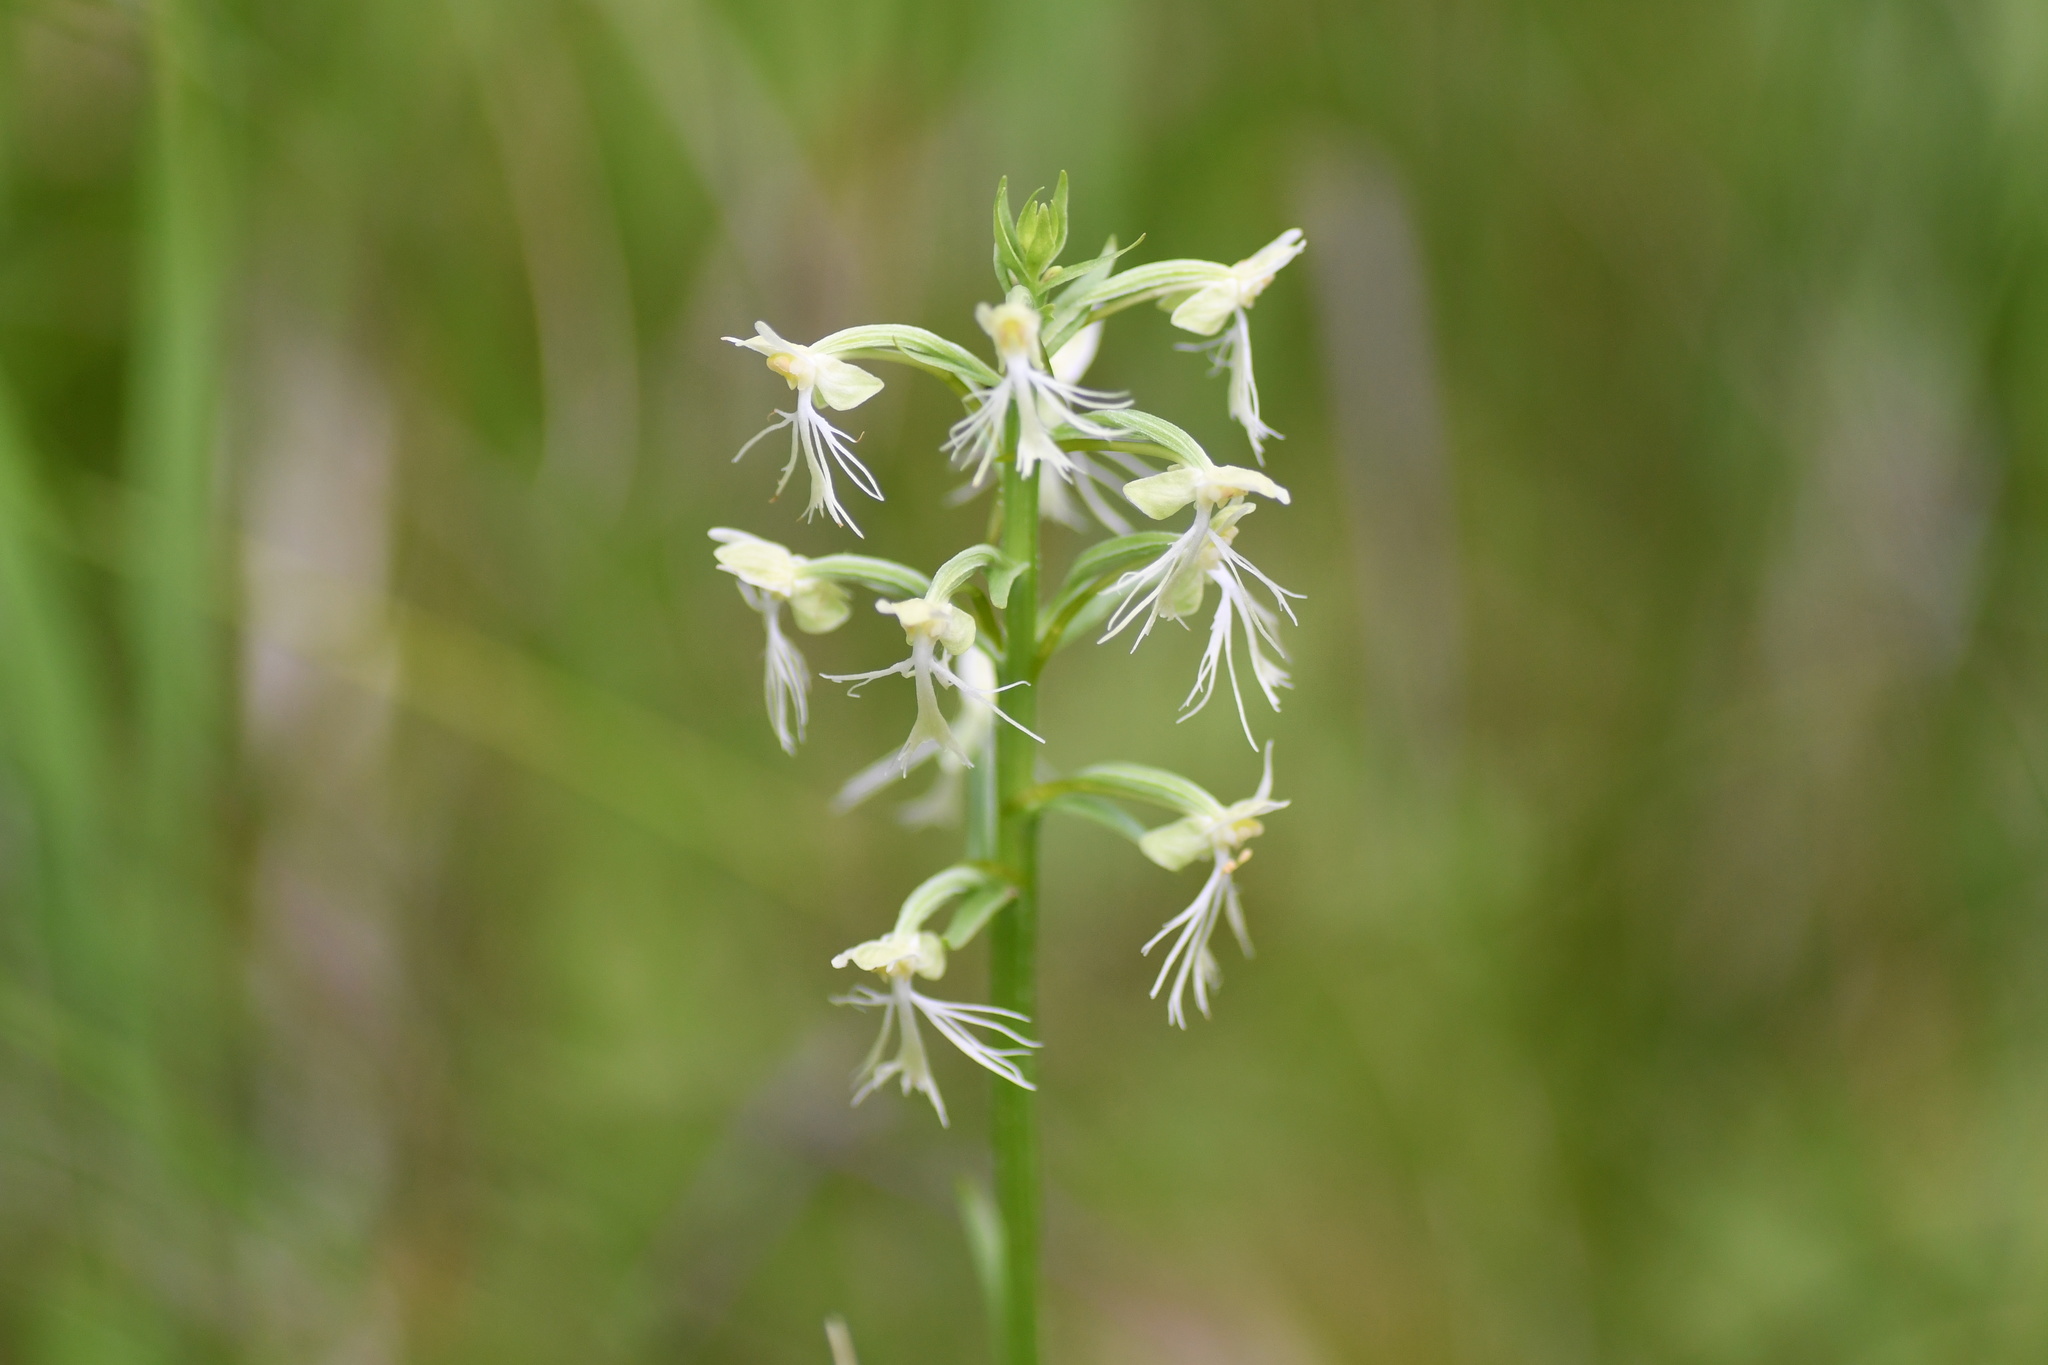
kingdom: Plantae
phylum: Tracheophyta
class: Liliopsida
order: Asparagales
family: Orchidaceae
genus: Platanthera
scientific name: Platanthera lacera
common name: Green fringed orchid
